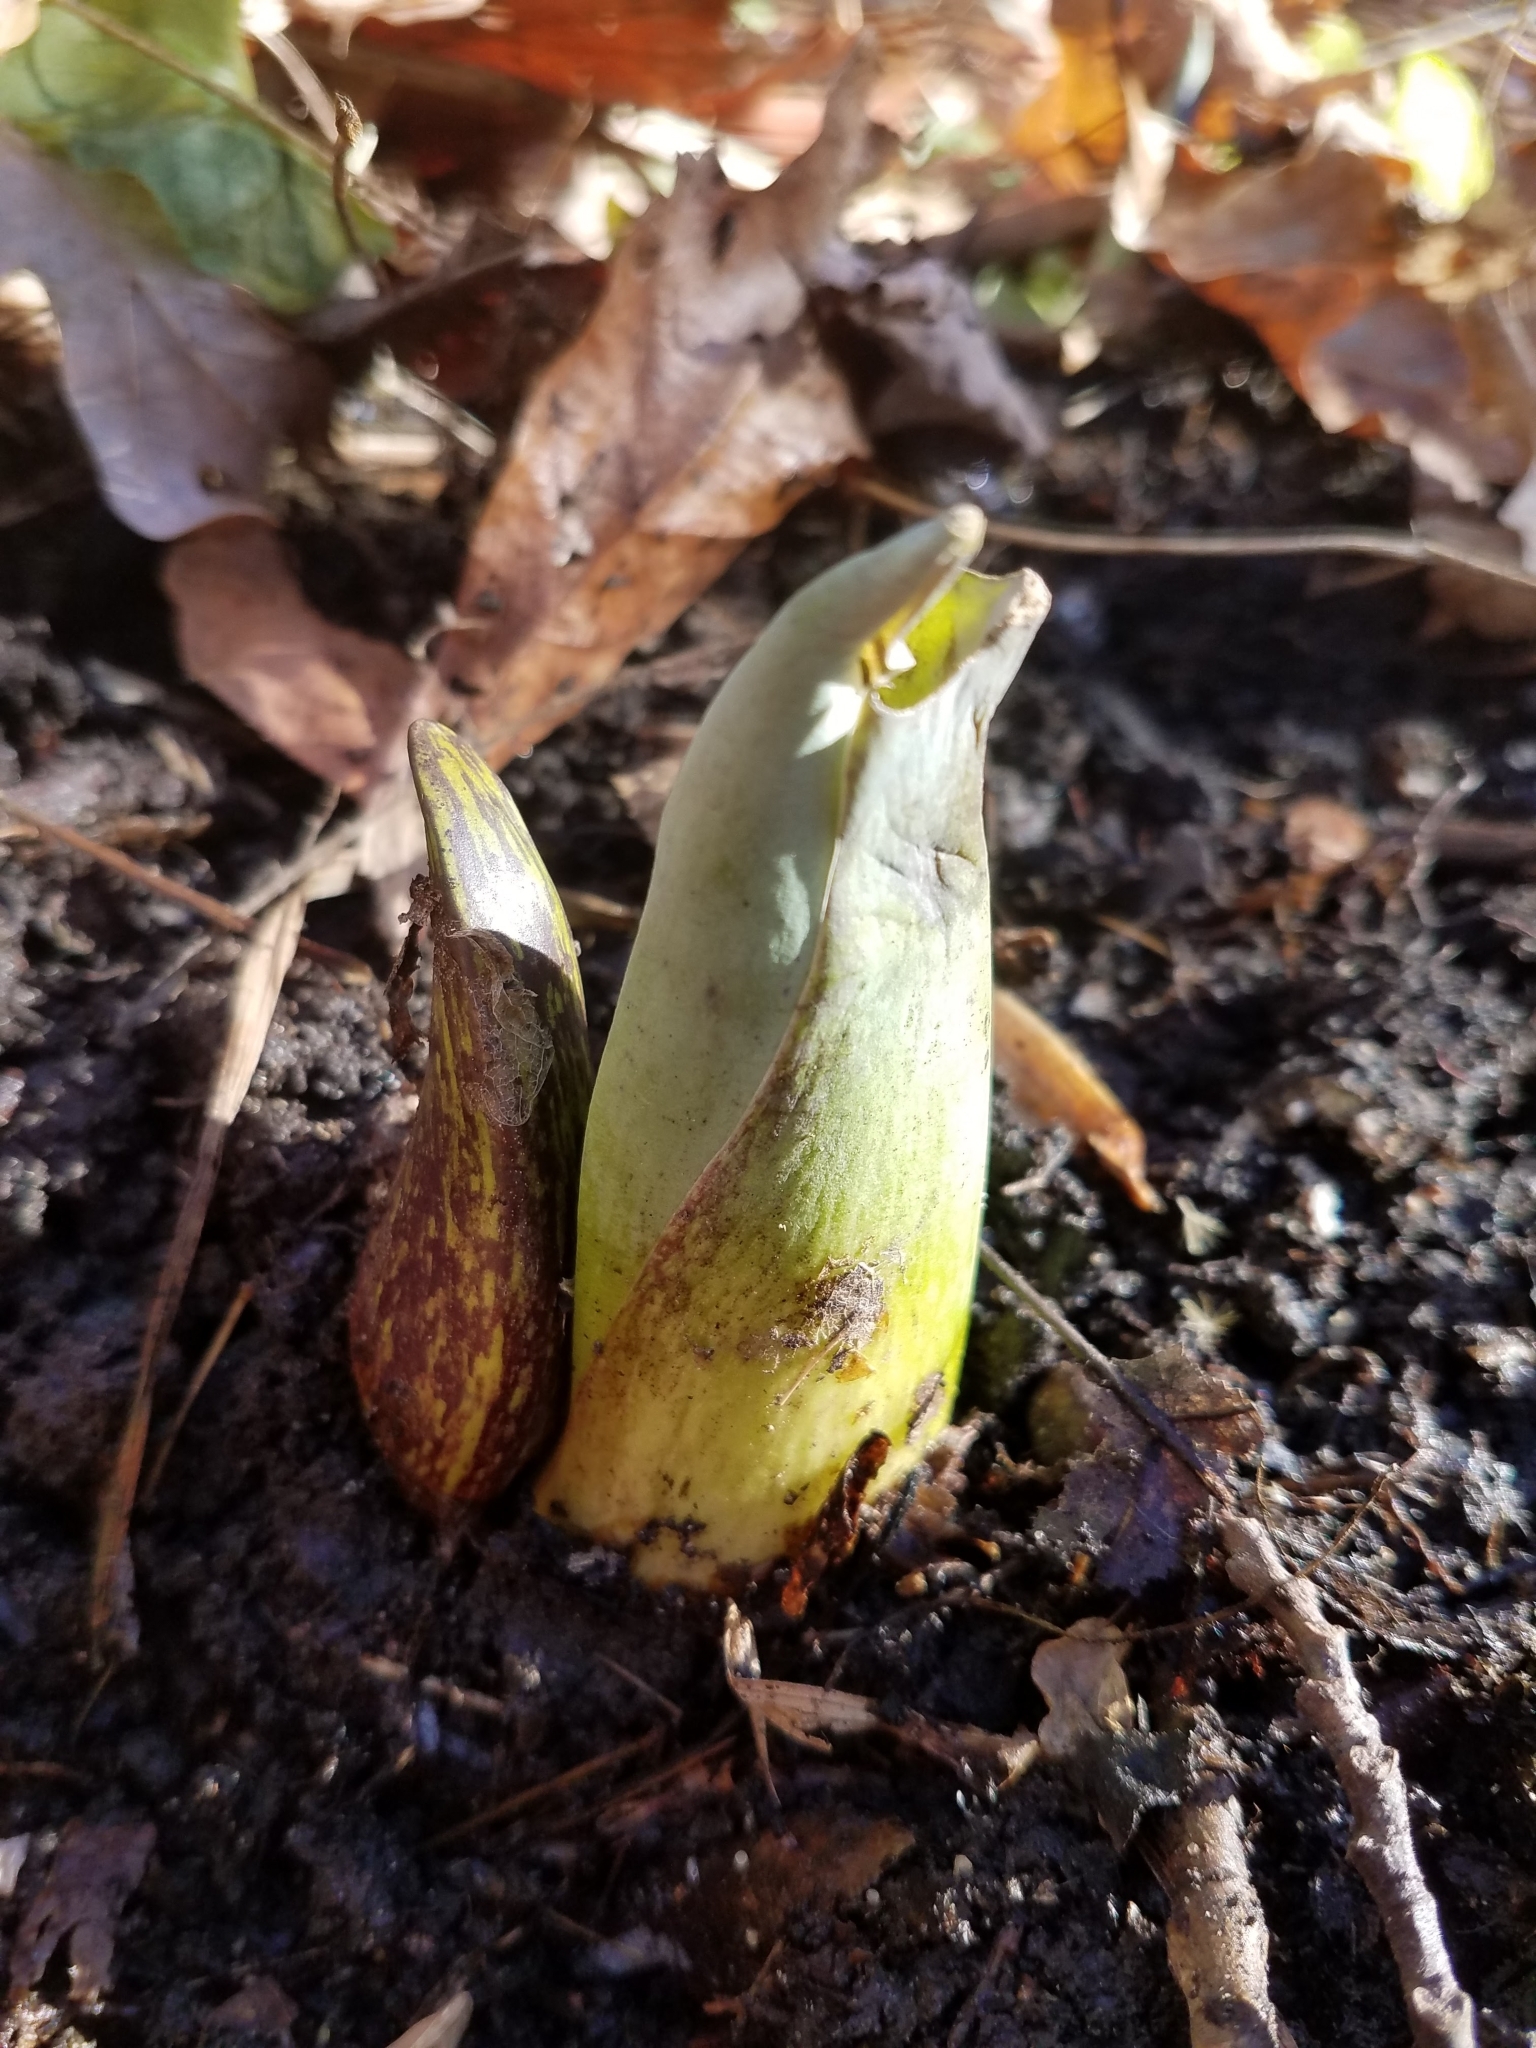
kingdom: Plantae
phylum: Tracheophyta
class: Liliopsida
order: Alismatales
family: Araceae
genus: Symplocarpus
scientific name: Symplocarpus foetidus
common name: Eastern skunk cabbage
